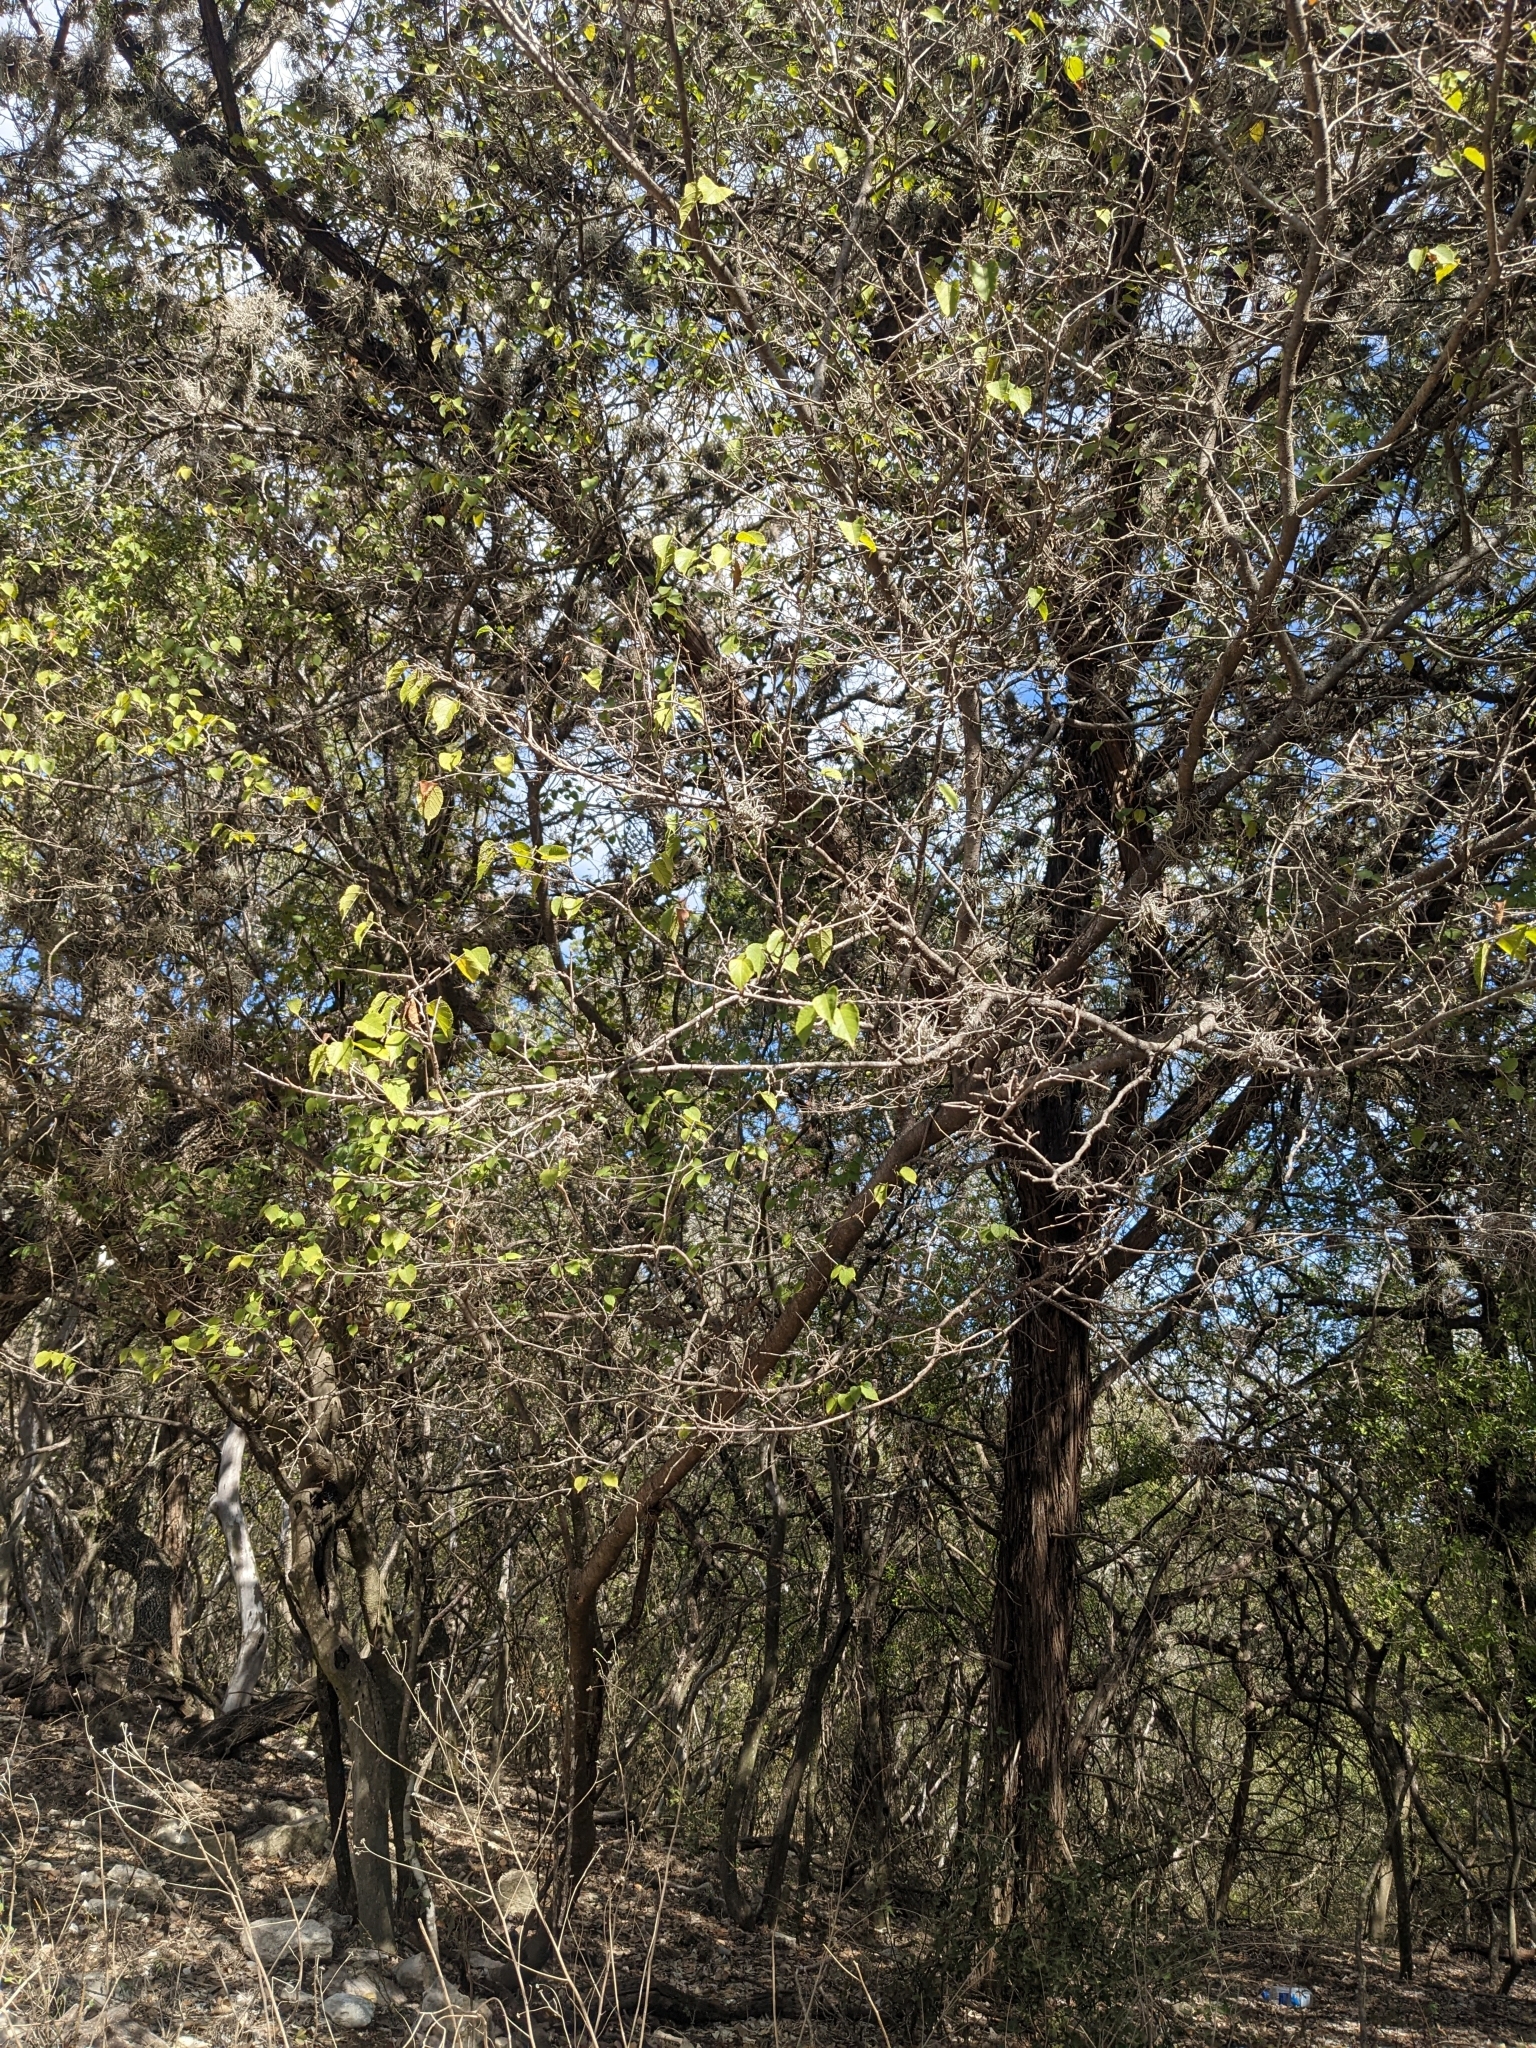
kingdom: Plantae
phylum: Tracheophyta
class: Magnoliopsida
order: Rosales
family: Moraceae
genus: Morus
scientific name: Morus microphylla
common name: Mexican mulberry
